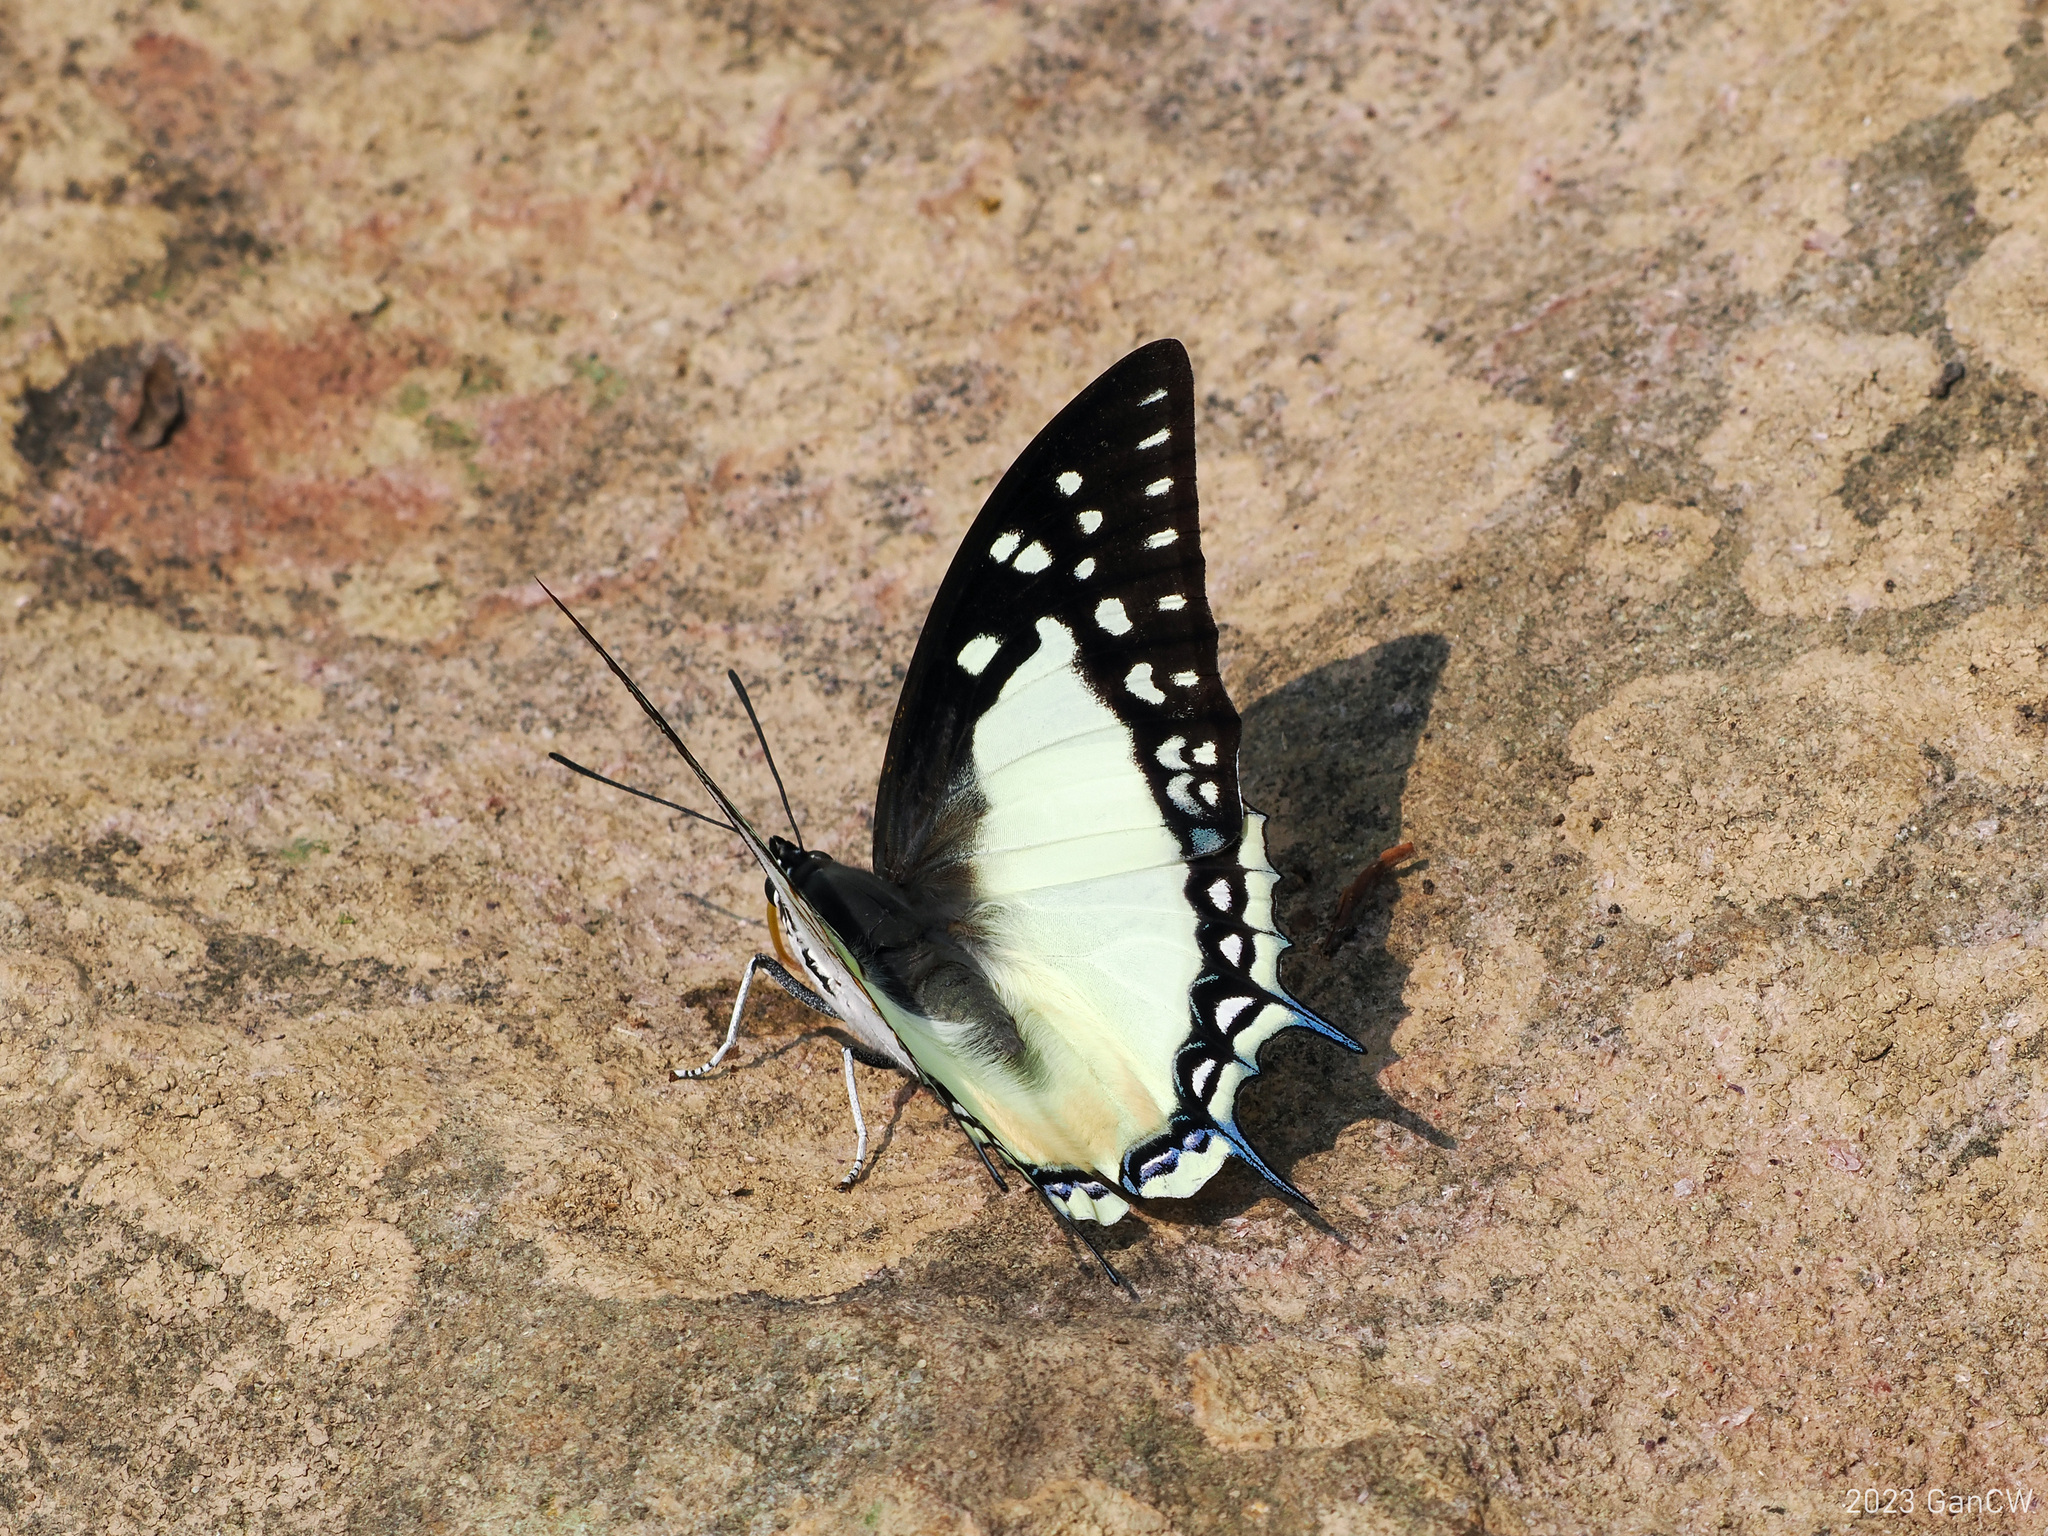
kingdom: Animalia
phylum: Arthropoda
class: Insecta
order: Lepidoptera
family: Nymphalidae
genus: Polyura
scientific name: Polyura eudamippus
